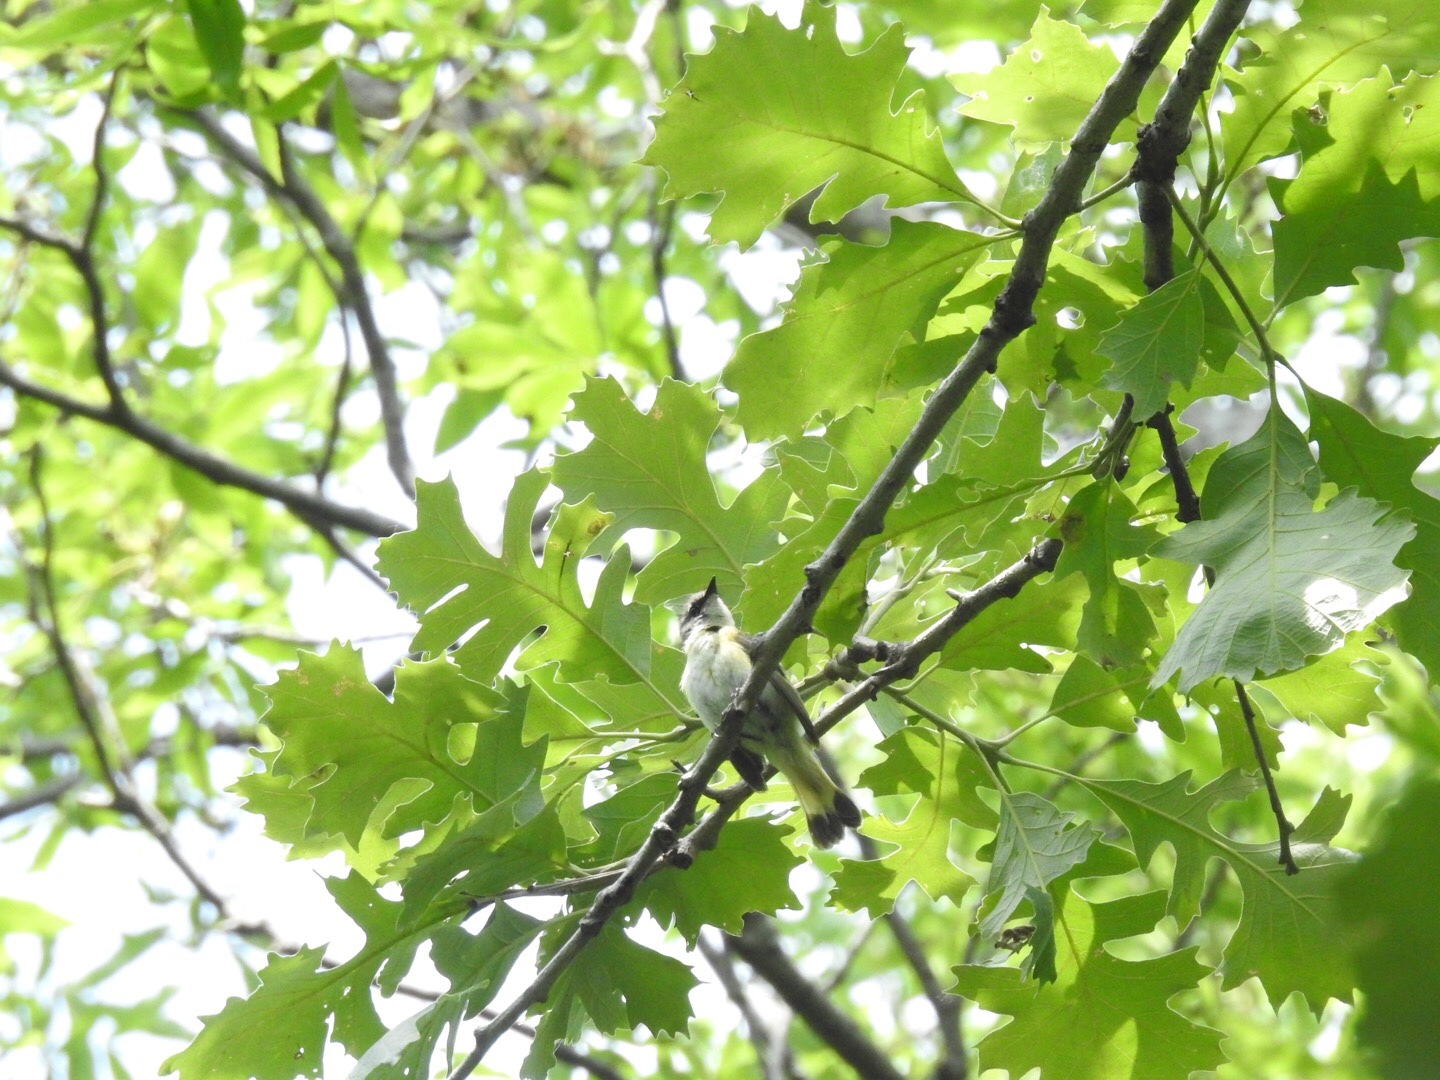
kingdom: Animalia
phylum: Chordata
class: Aves
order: Passeriformes
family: Parulidae
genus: Setophaga
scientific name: Setophaga ruticilla
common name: American redstart
